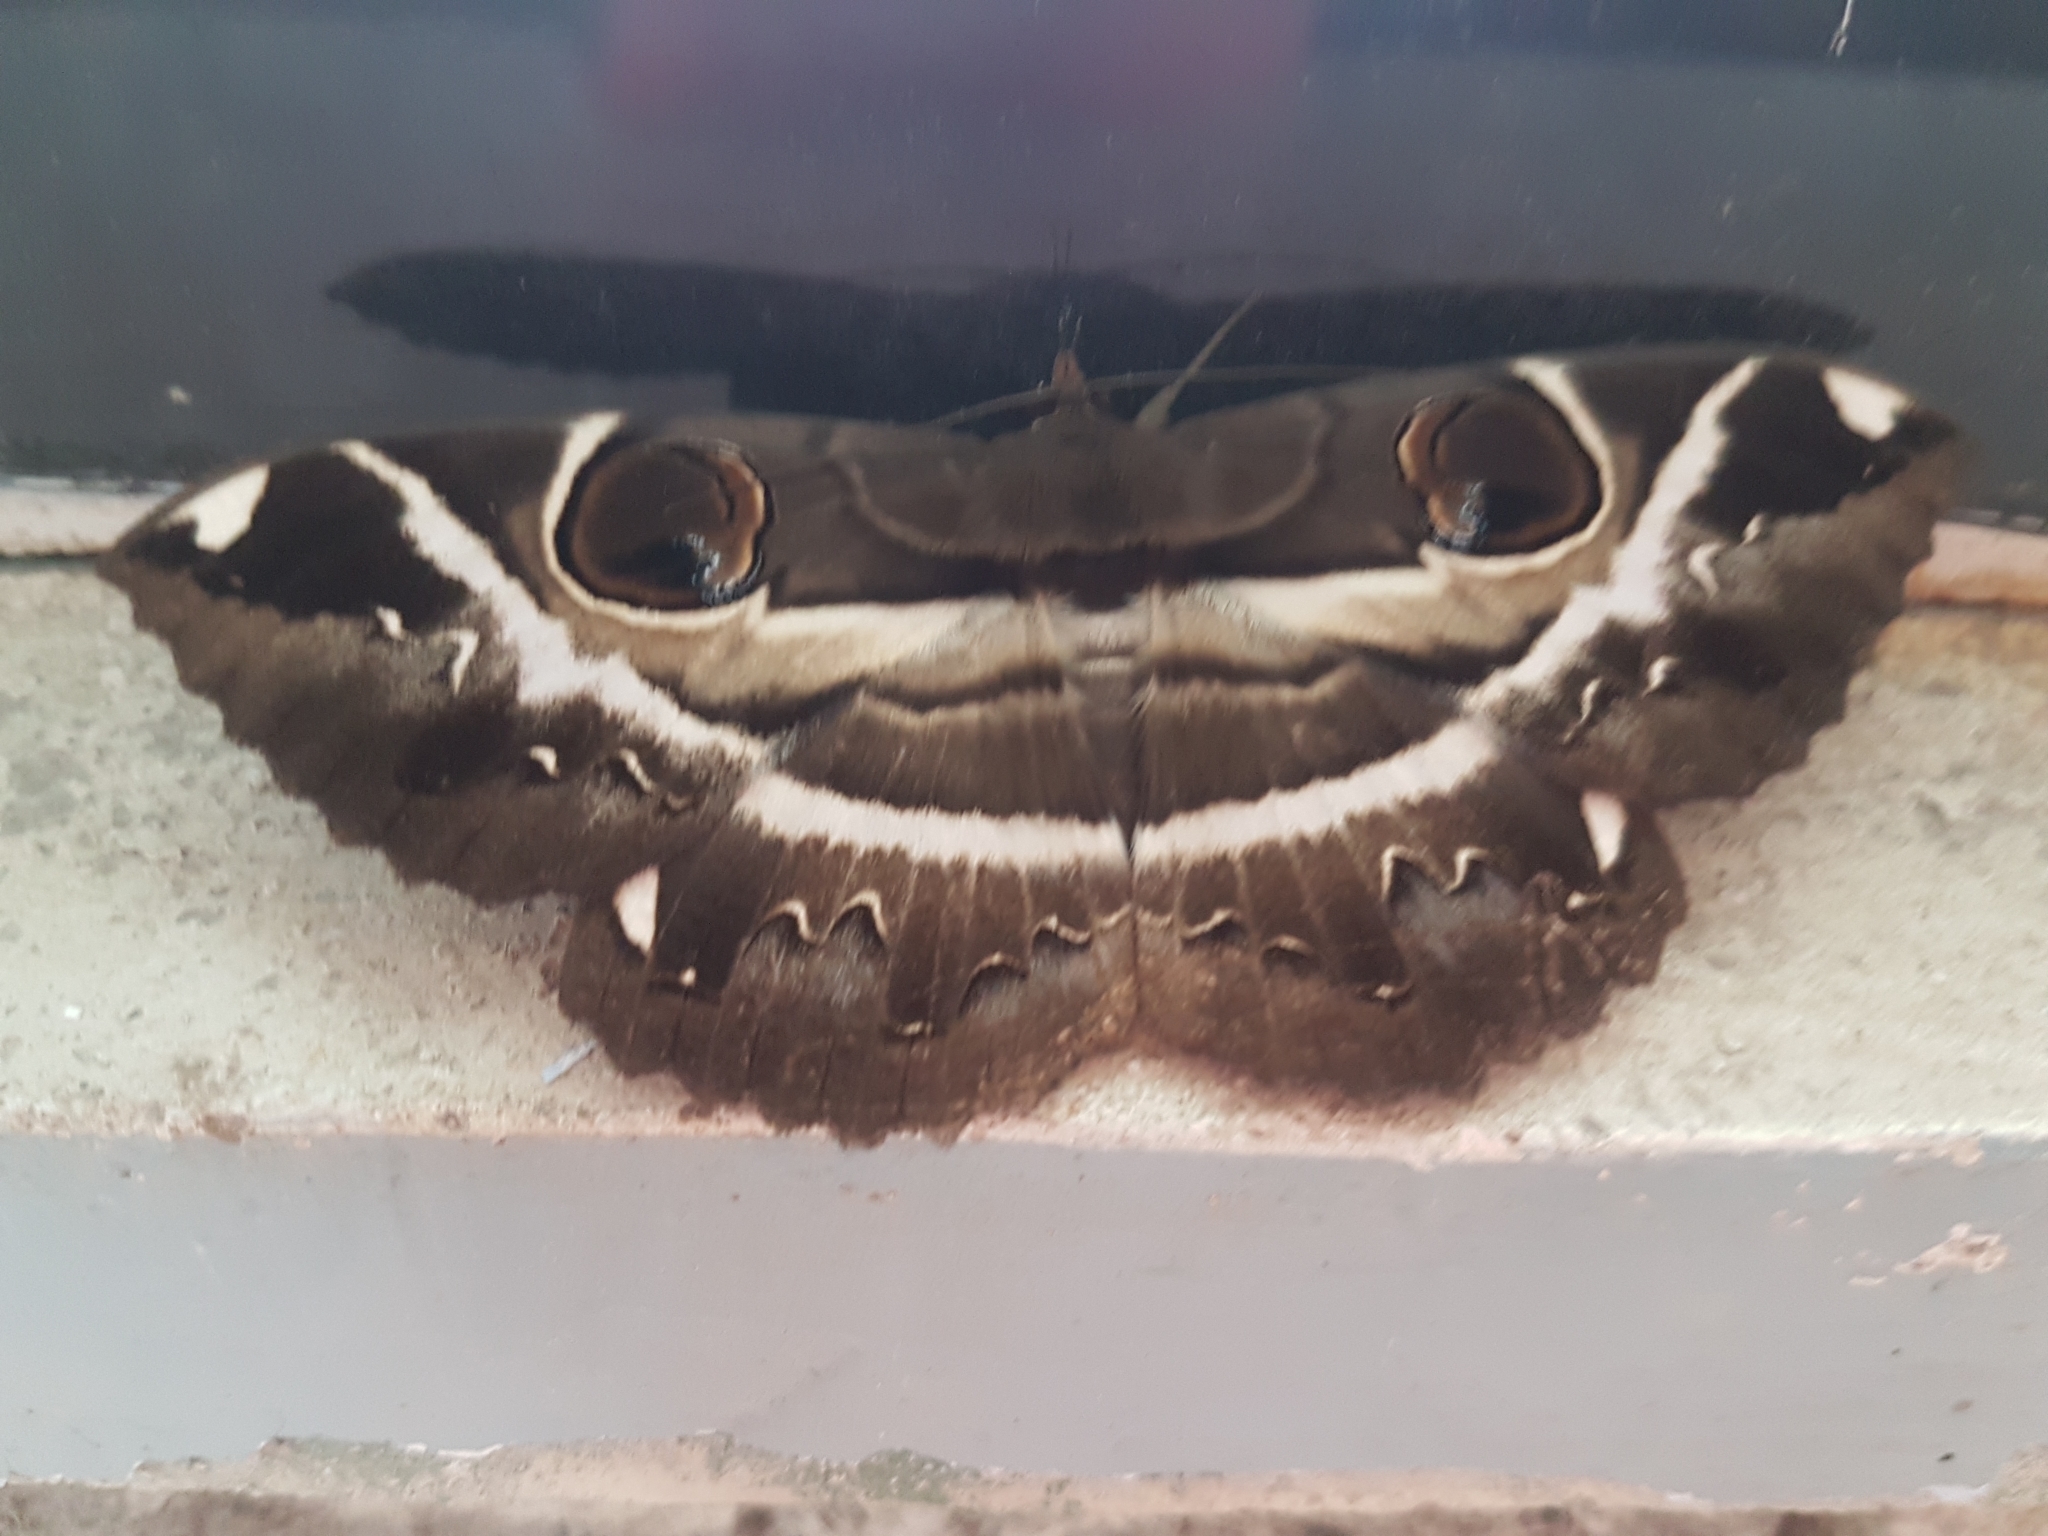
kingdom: Animalia
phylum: Arthropoda
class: Insecta
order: Lepidoptera
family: Erebidae
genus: Erebus
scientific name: Erebus ephesperis
